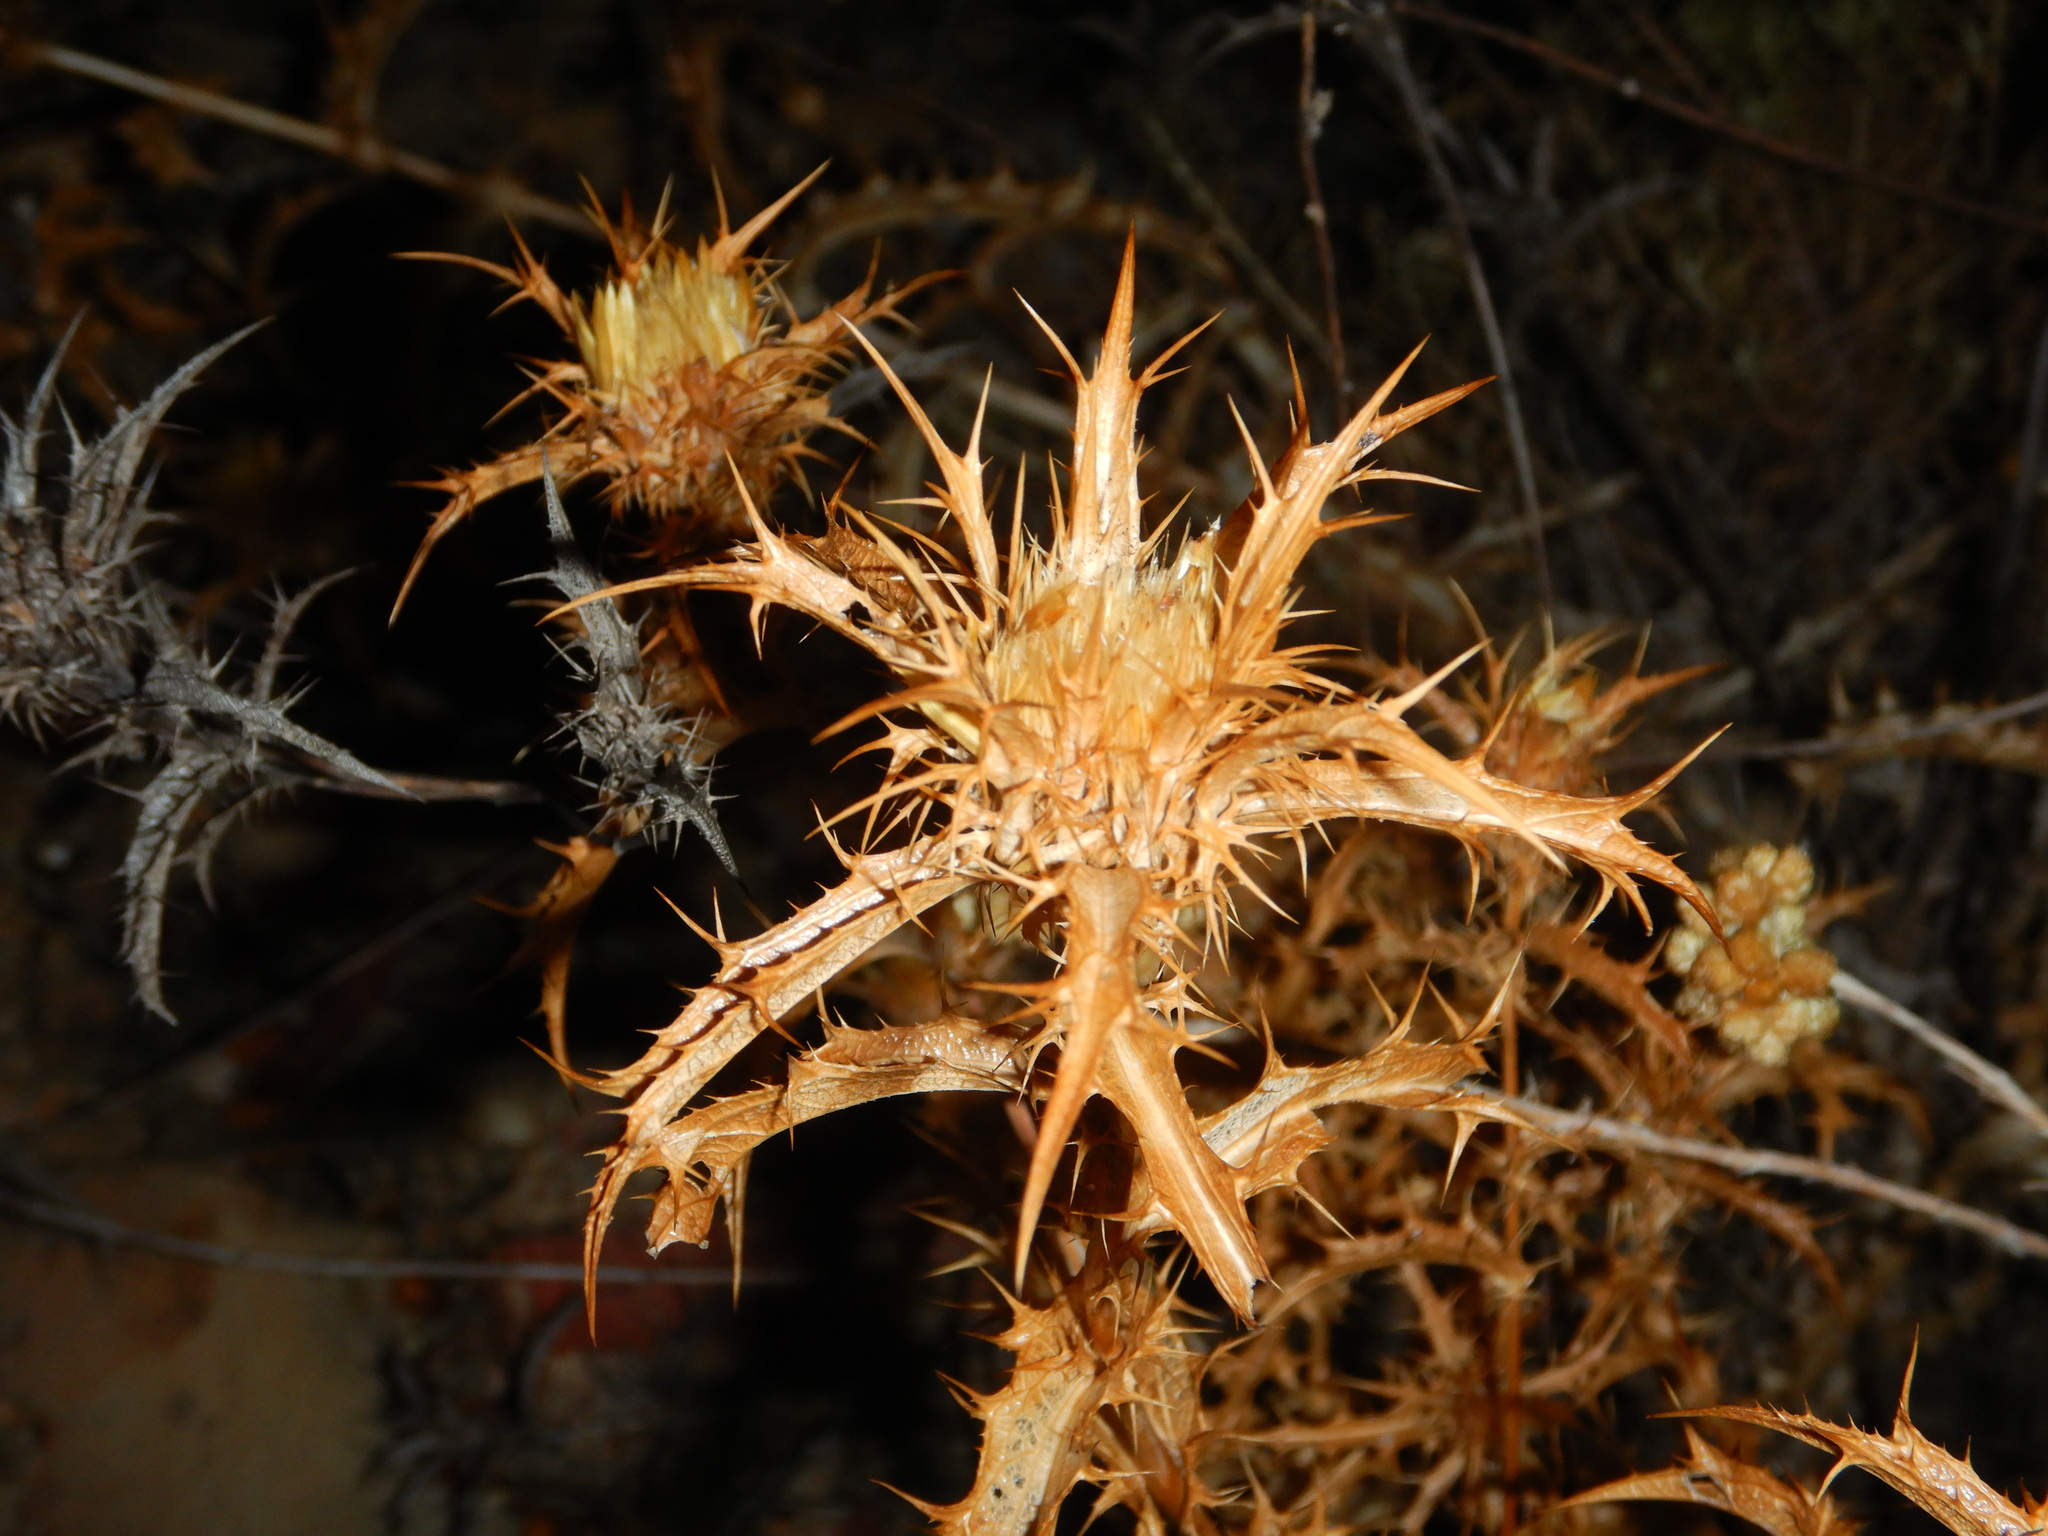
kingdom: Plantae
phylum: Tracheophyta
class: Magnoliopsida
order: Asterales
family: Asteraceae
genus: Carlina
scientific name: Carlina hispanica
